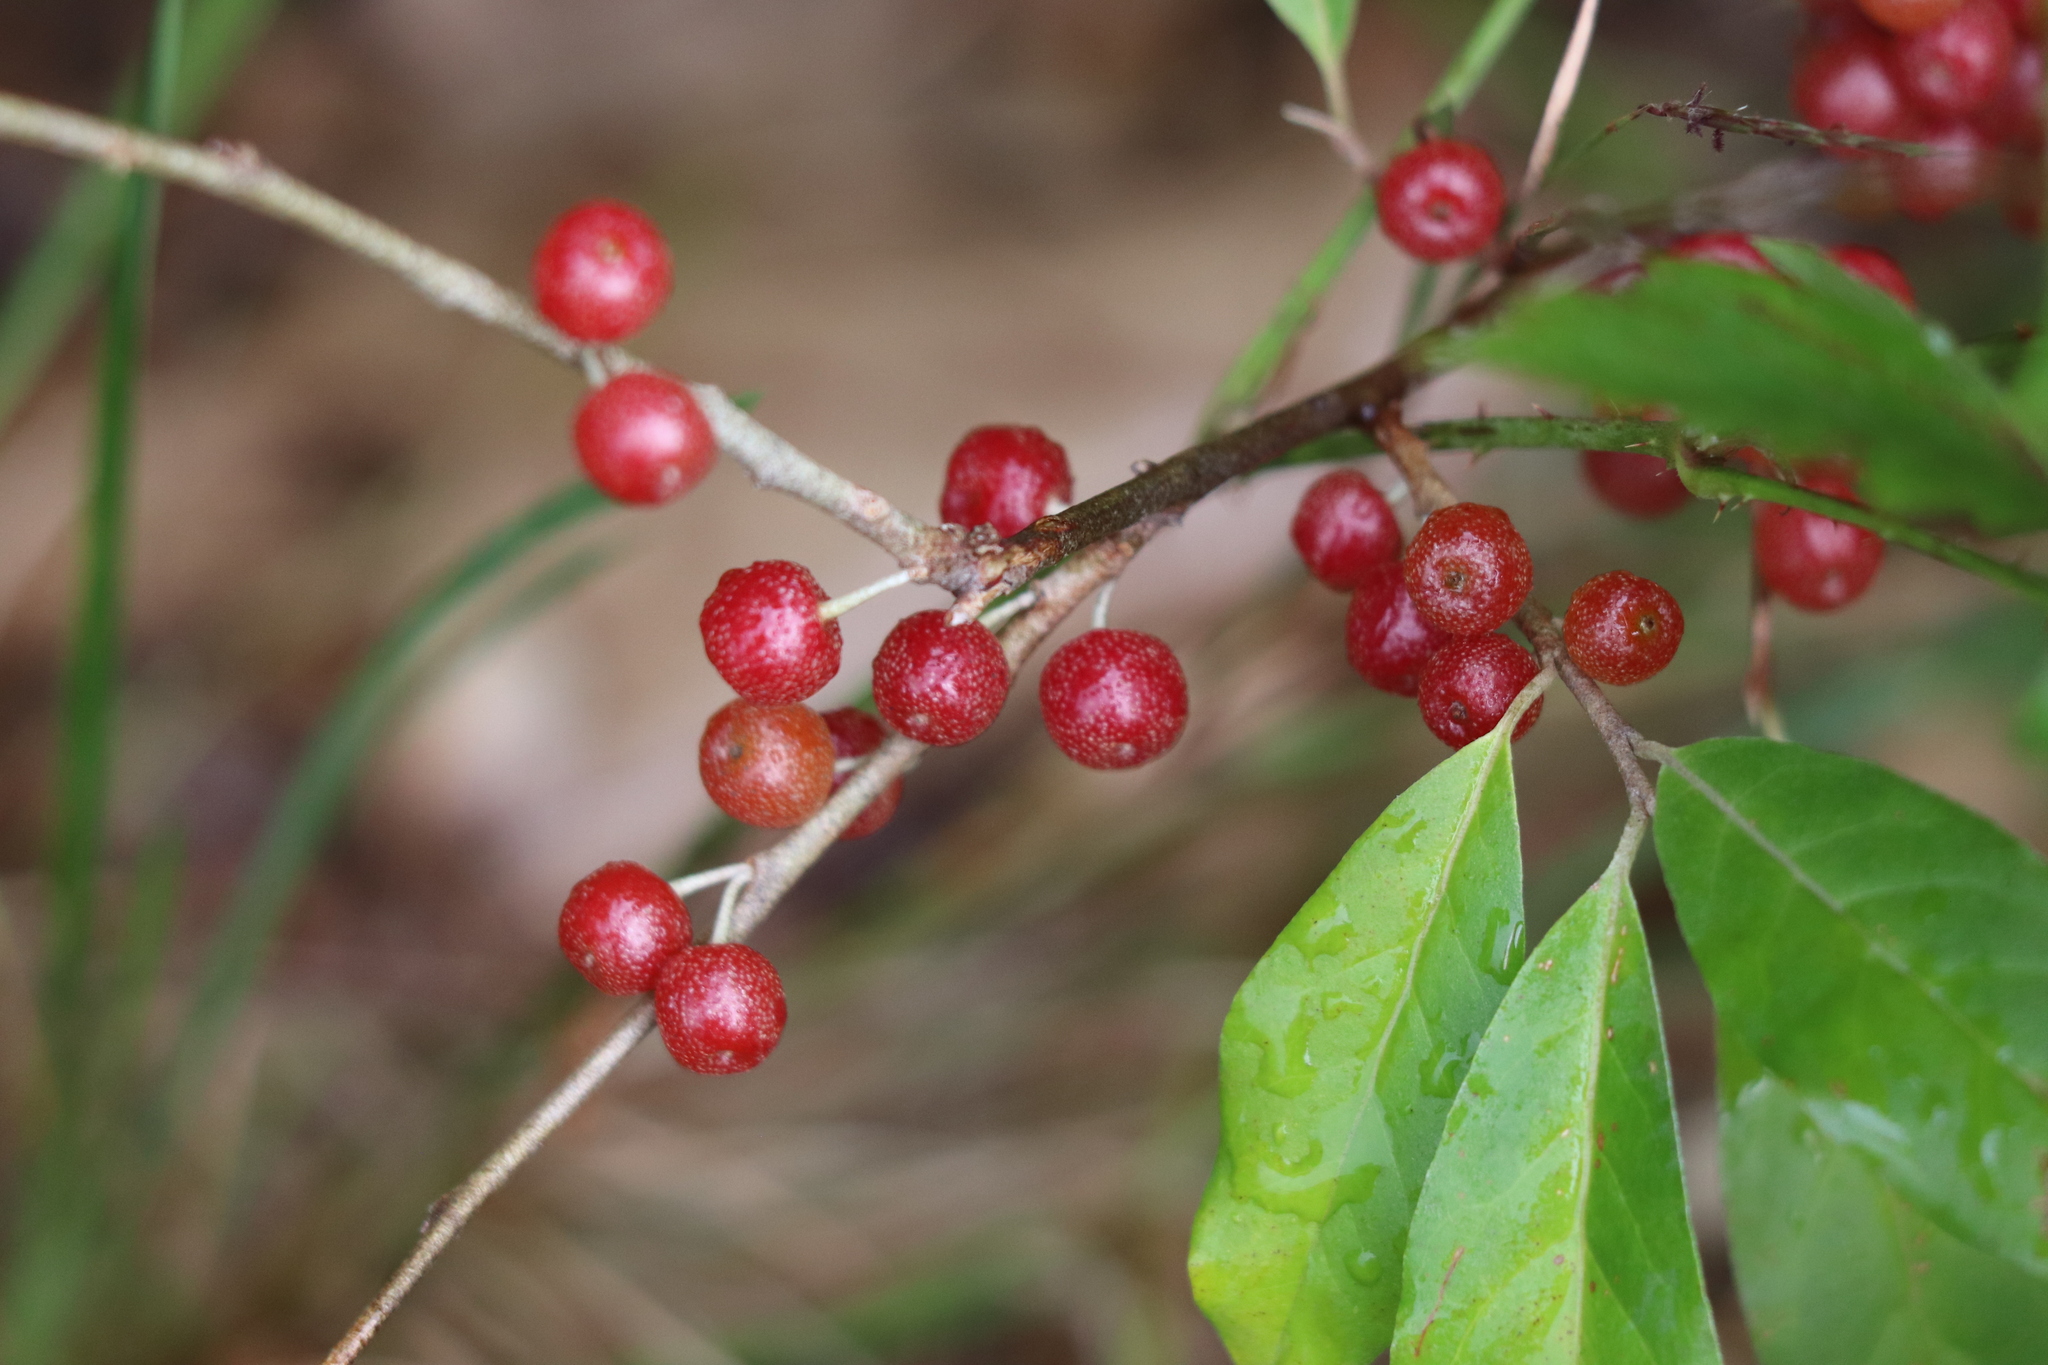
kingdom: Plantae
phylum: Tracheophyta
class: Magnoliopsida
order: Rosales
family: Elaeagnaceae
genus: Elaeagnus
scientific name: Elaeagnus umbellata
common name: Autumn olive
